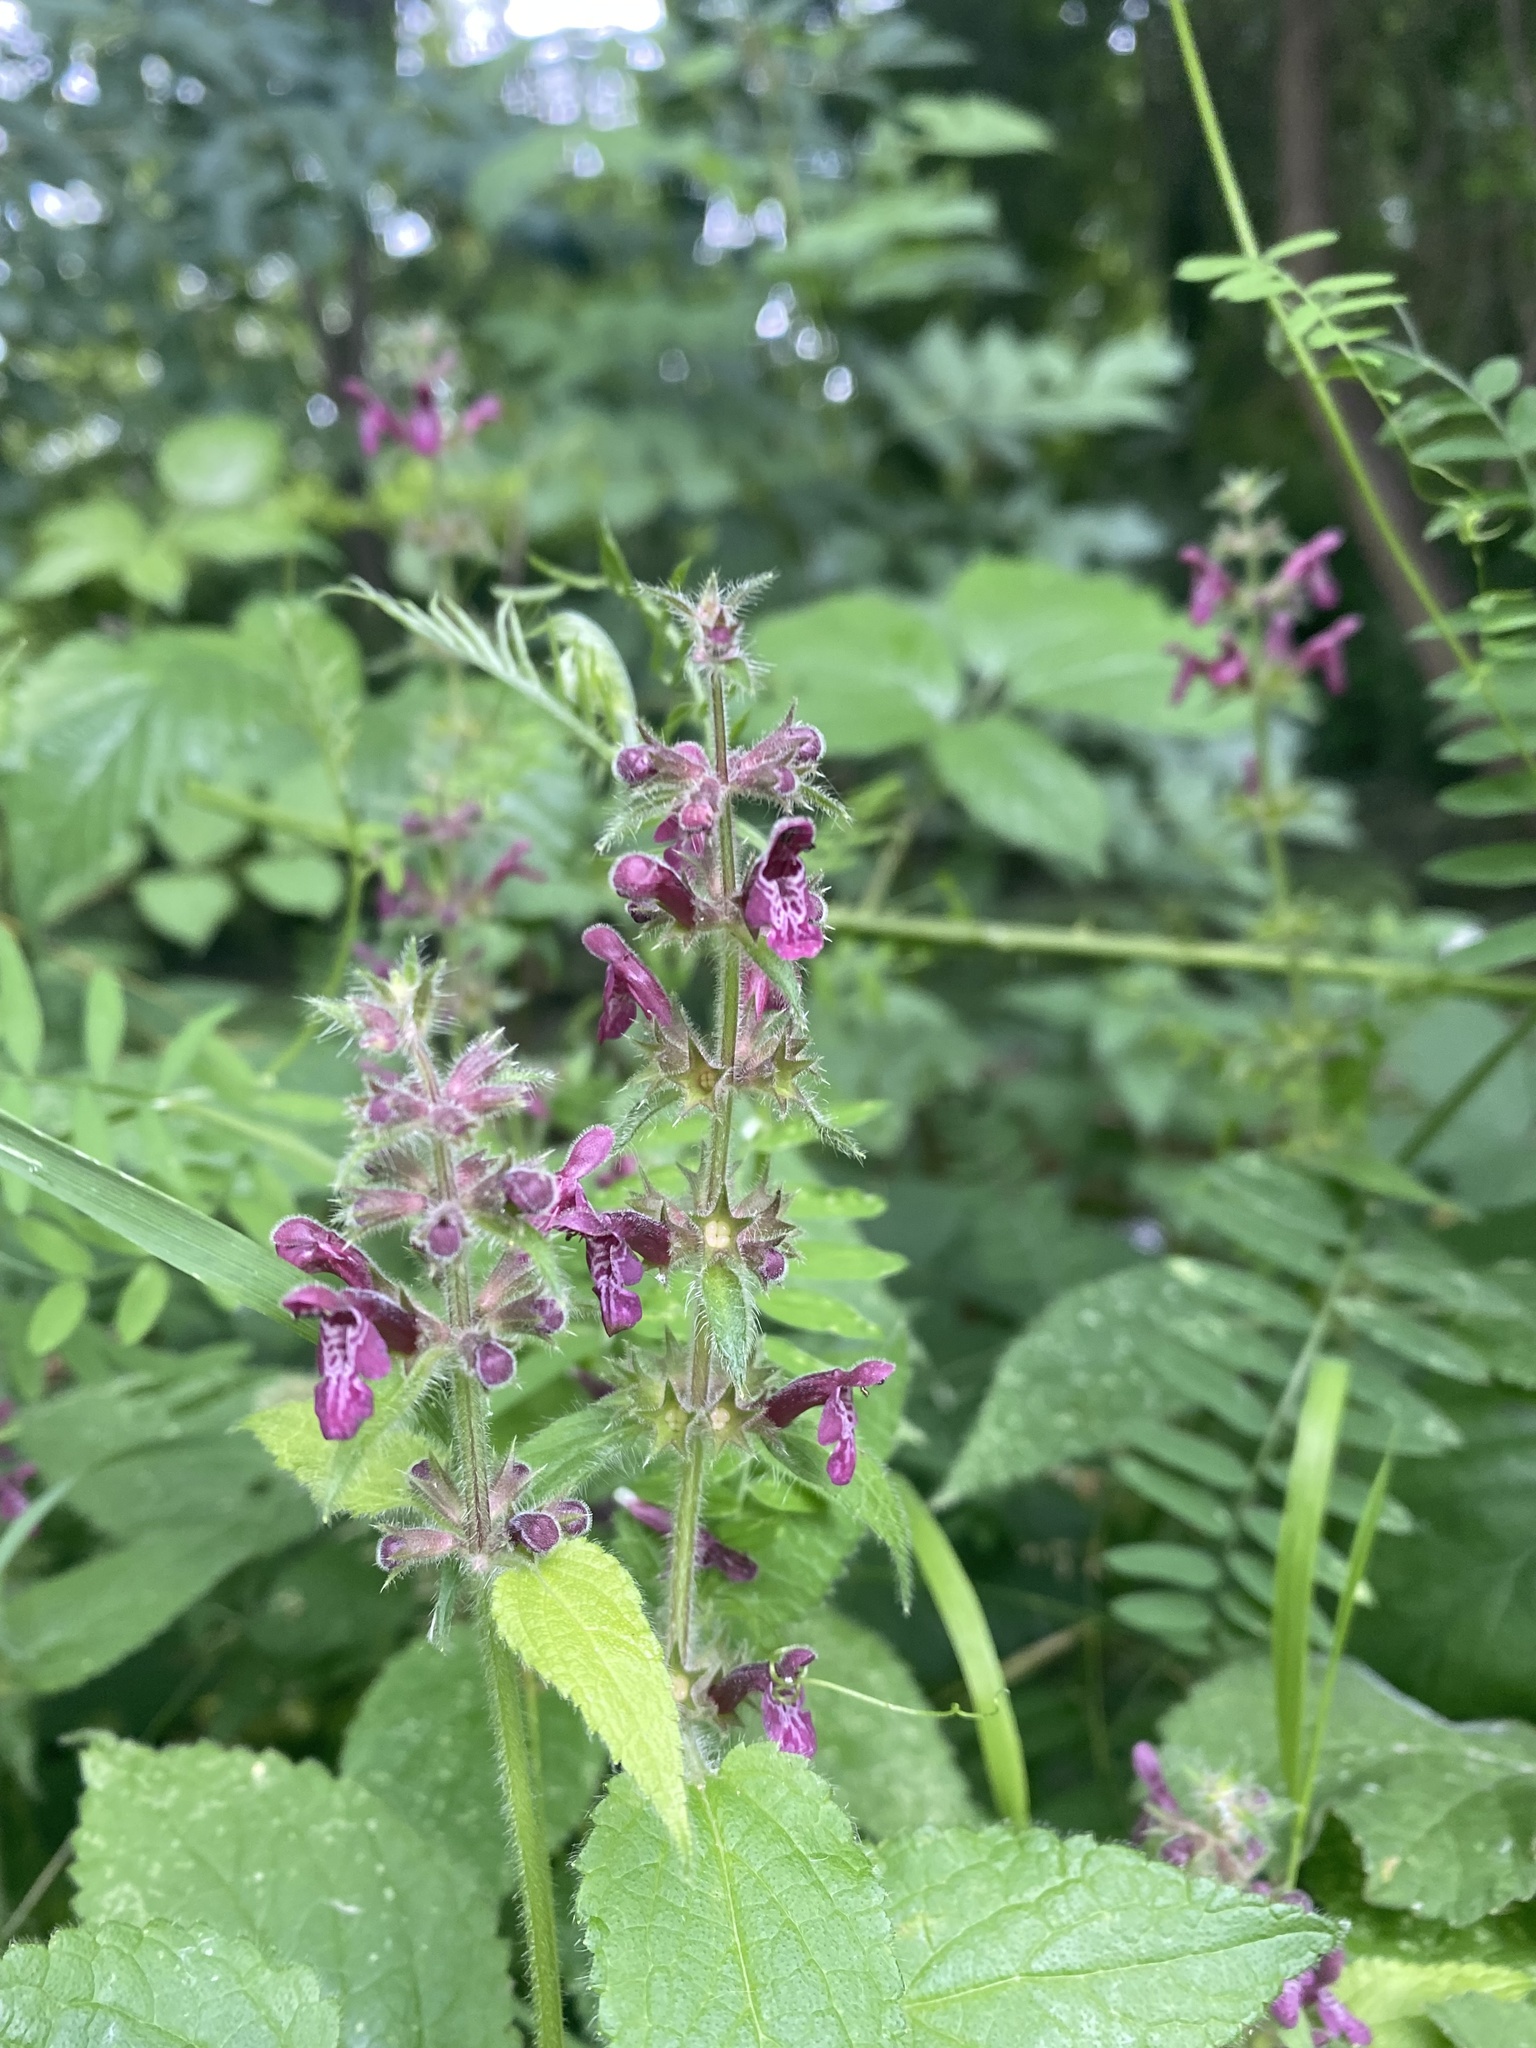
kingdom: Plantae
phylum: Tracheophyta
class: Magnoliopsida
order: Lamiales
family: Lamiaceae
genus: Stachys
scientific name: Stachys sylvatica
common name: Hedge woundwort
